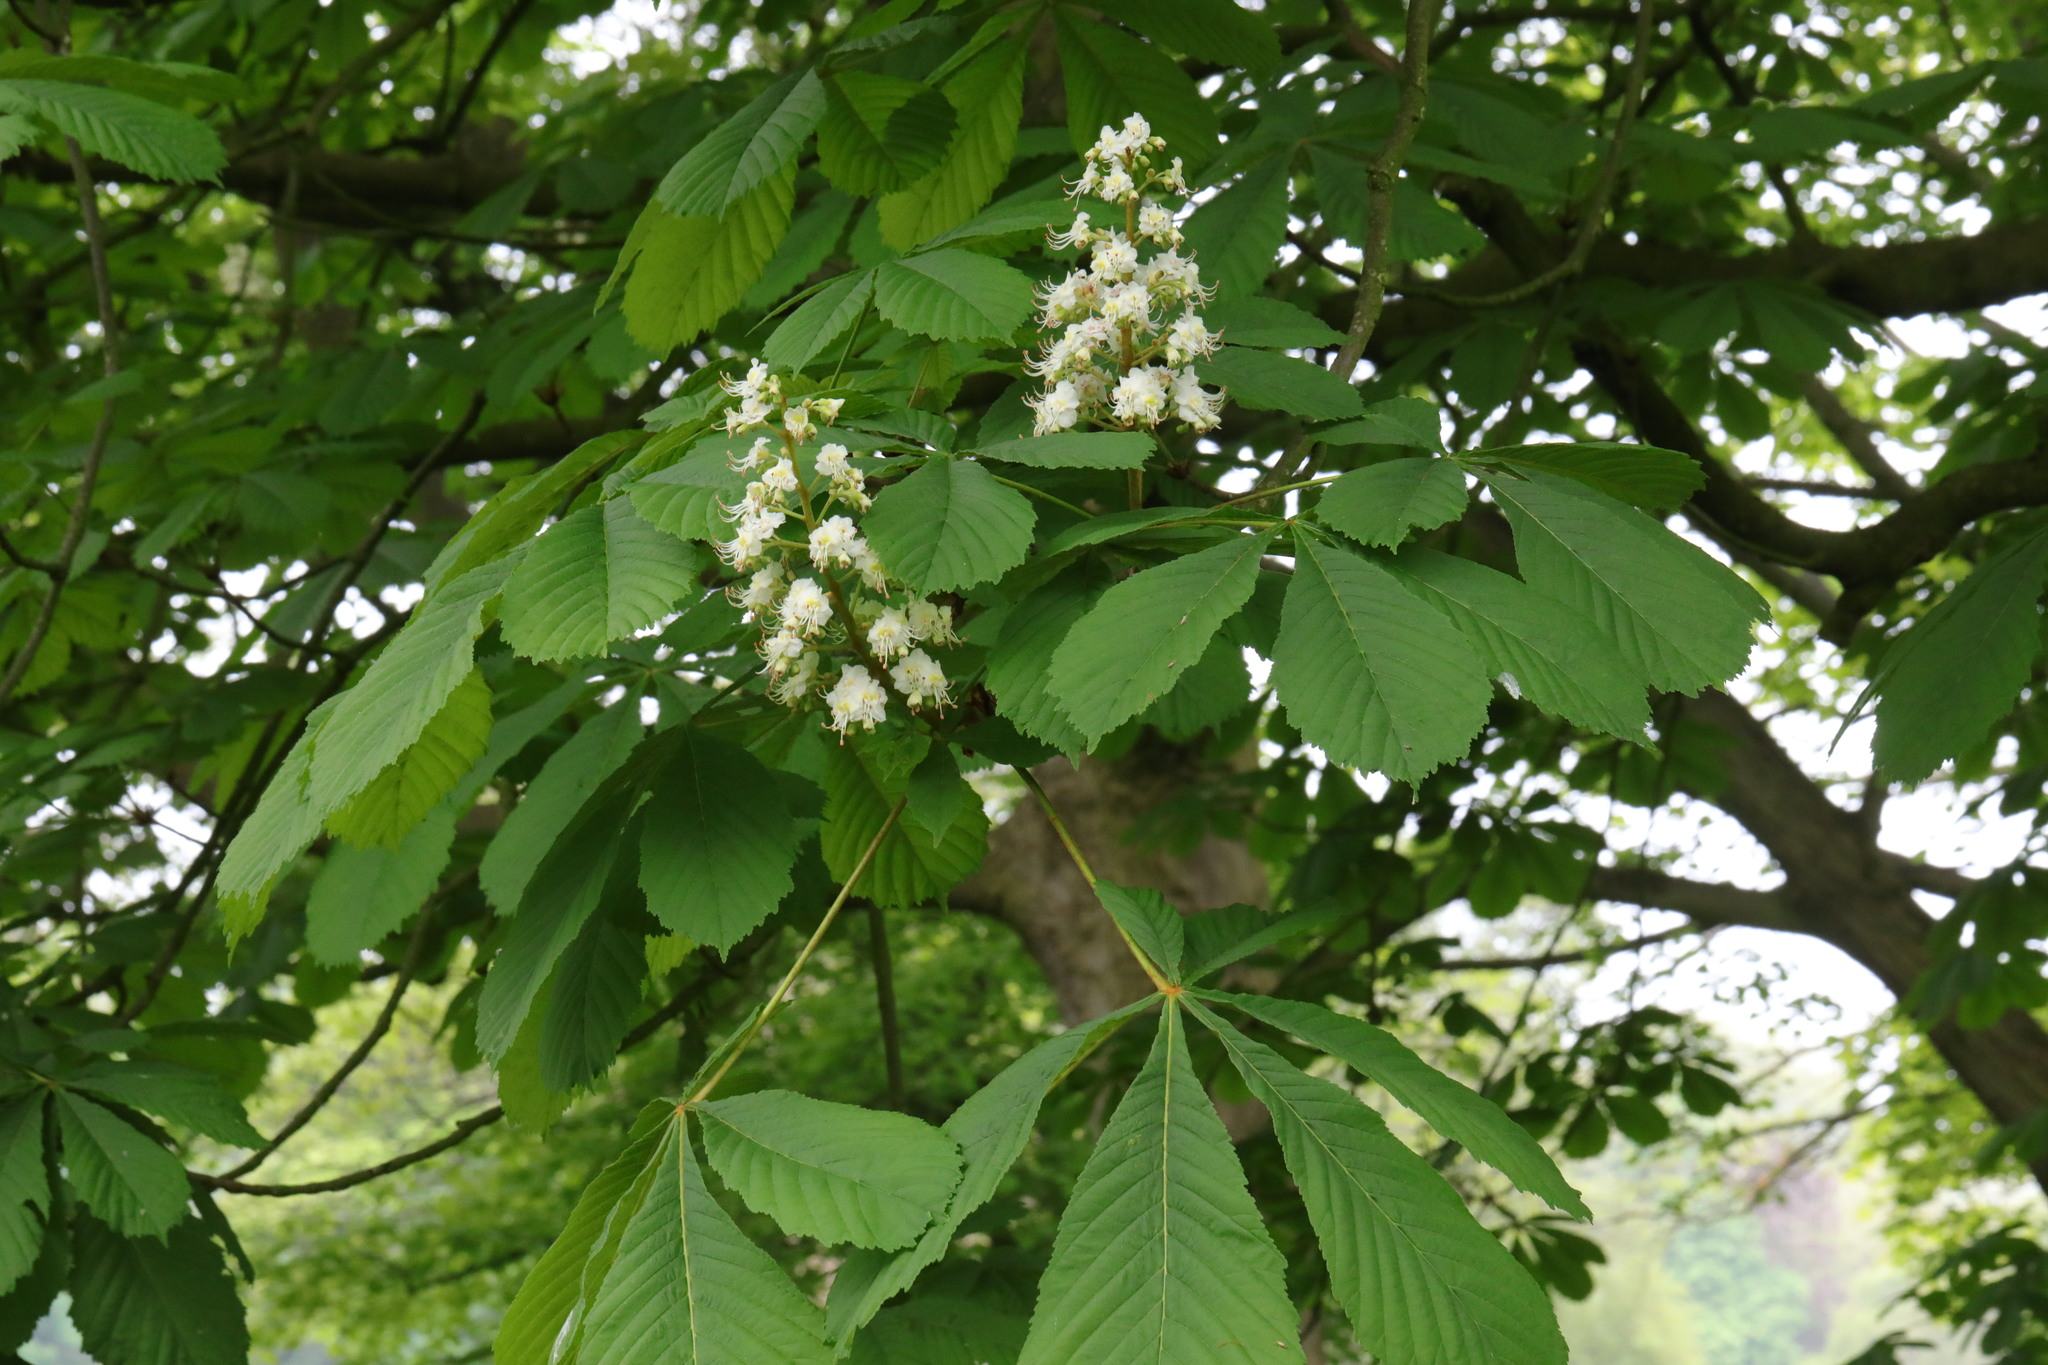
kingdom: Plantae
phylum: Tracheophyta
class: Magnoliopsida
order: Sapindales
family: Sapindaceae
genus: Aesculus
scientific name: Aesculus hippocastanum
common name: Horse-chestnut
